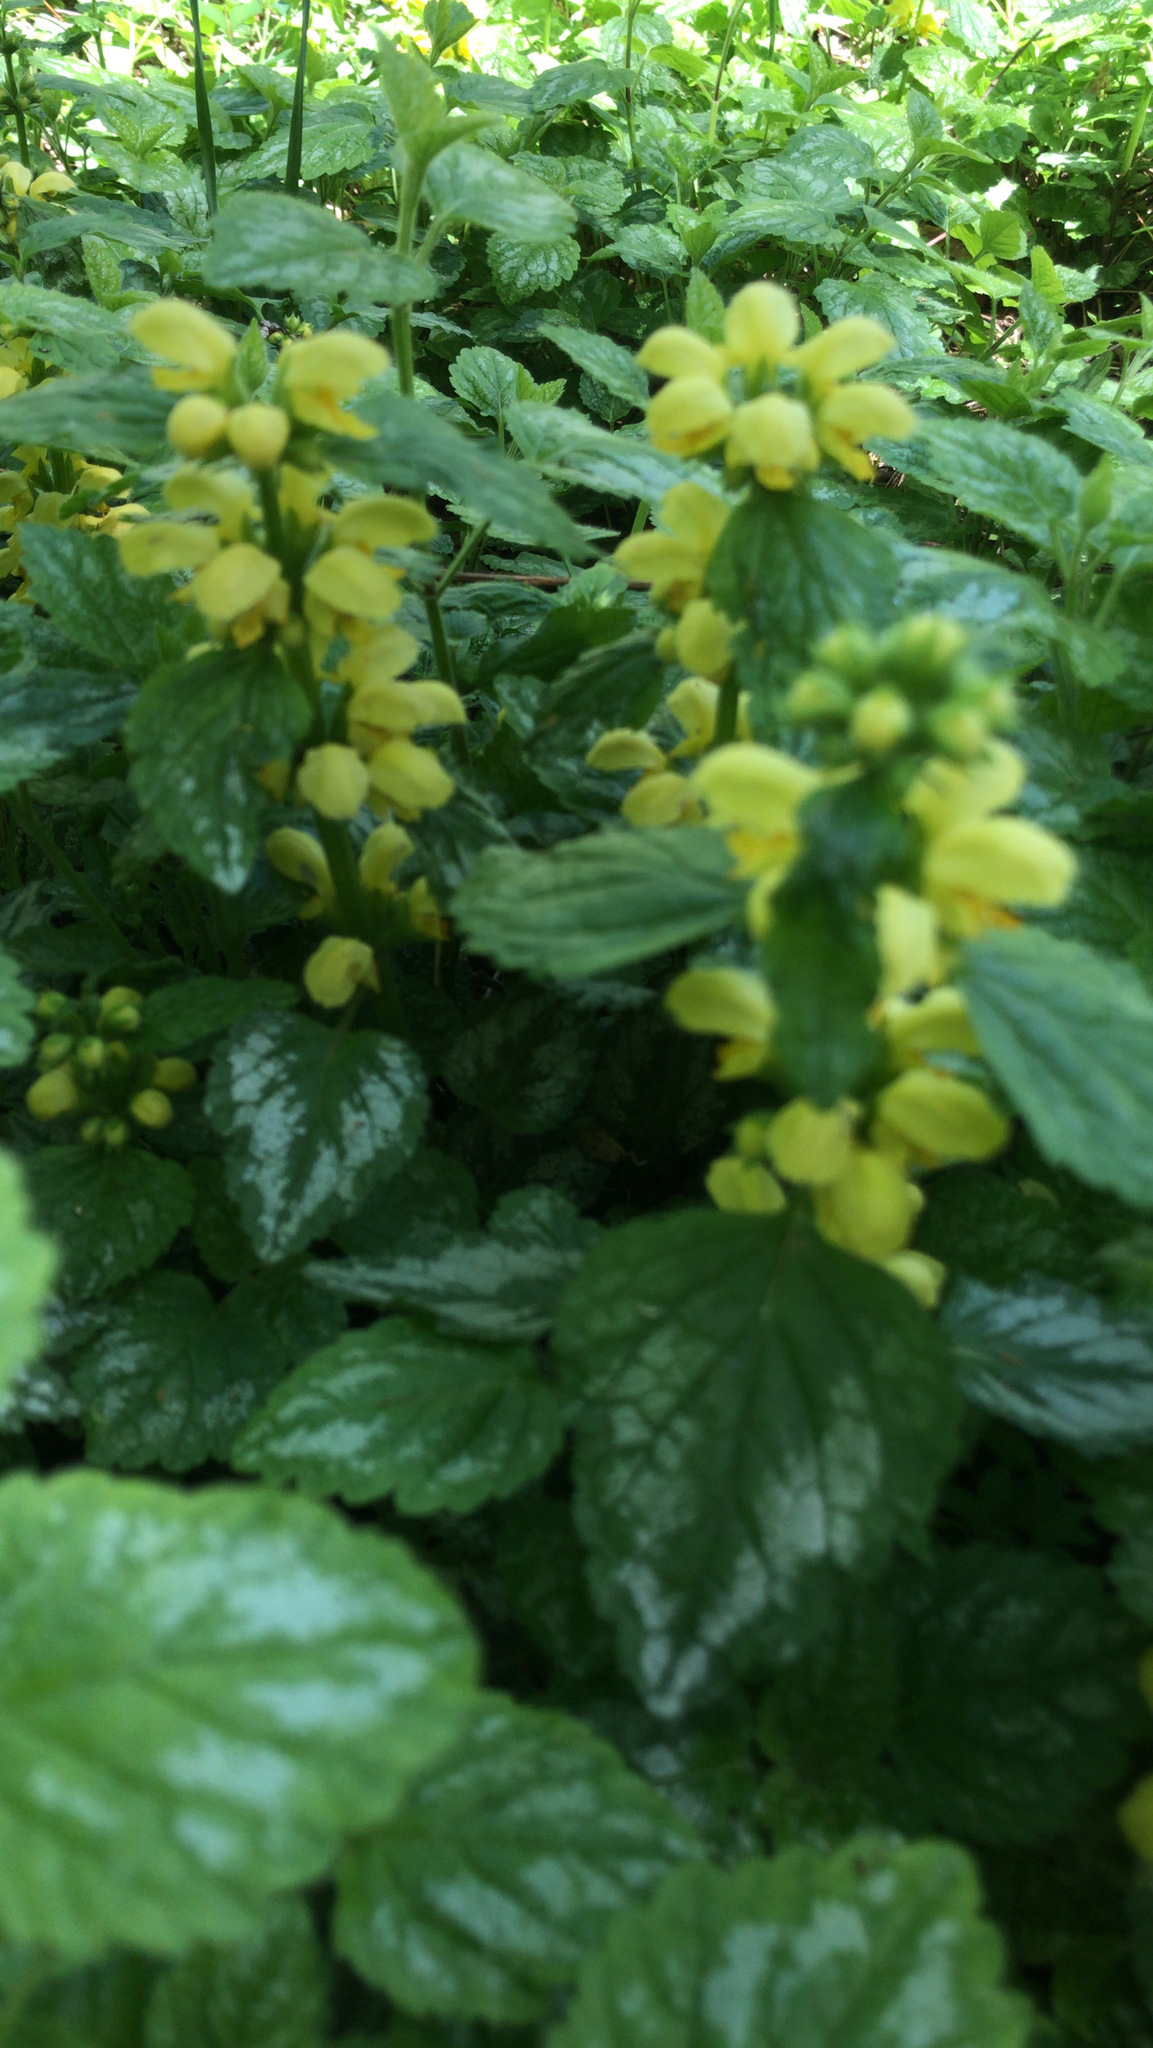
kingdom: Plantae
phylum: Tracheophyta
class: Magnoliopsida
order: Lamiales
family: Lamiaceae
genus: Lamium
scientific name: Lamium galeobdolon
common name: Yellow archangel
